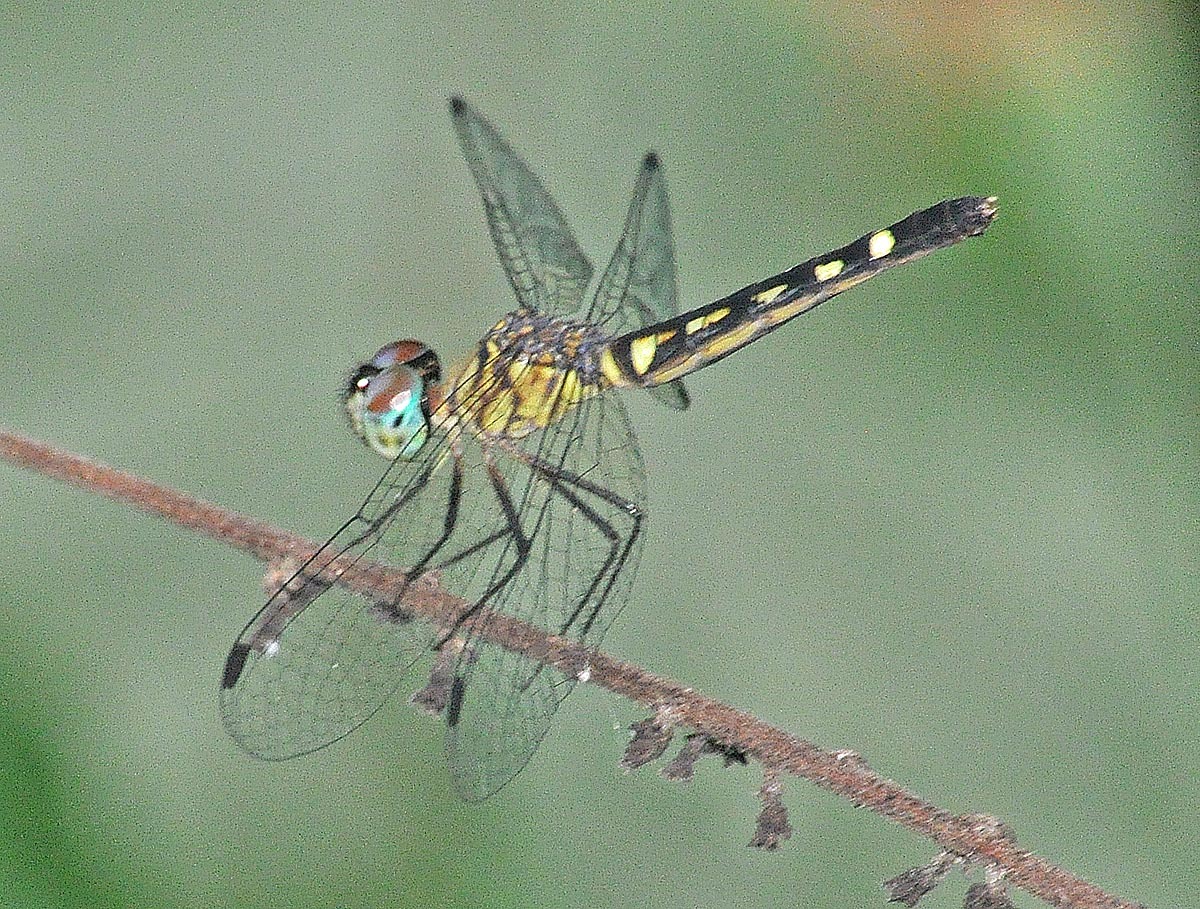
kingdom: Animalia
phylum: Arthropoda
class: Insecta
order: Odonata
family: Libellulidae
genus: Micrathyria
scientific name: Micrathyria tibialis
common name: Pale-footed dasher
